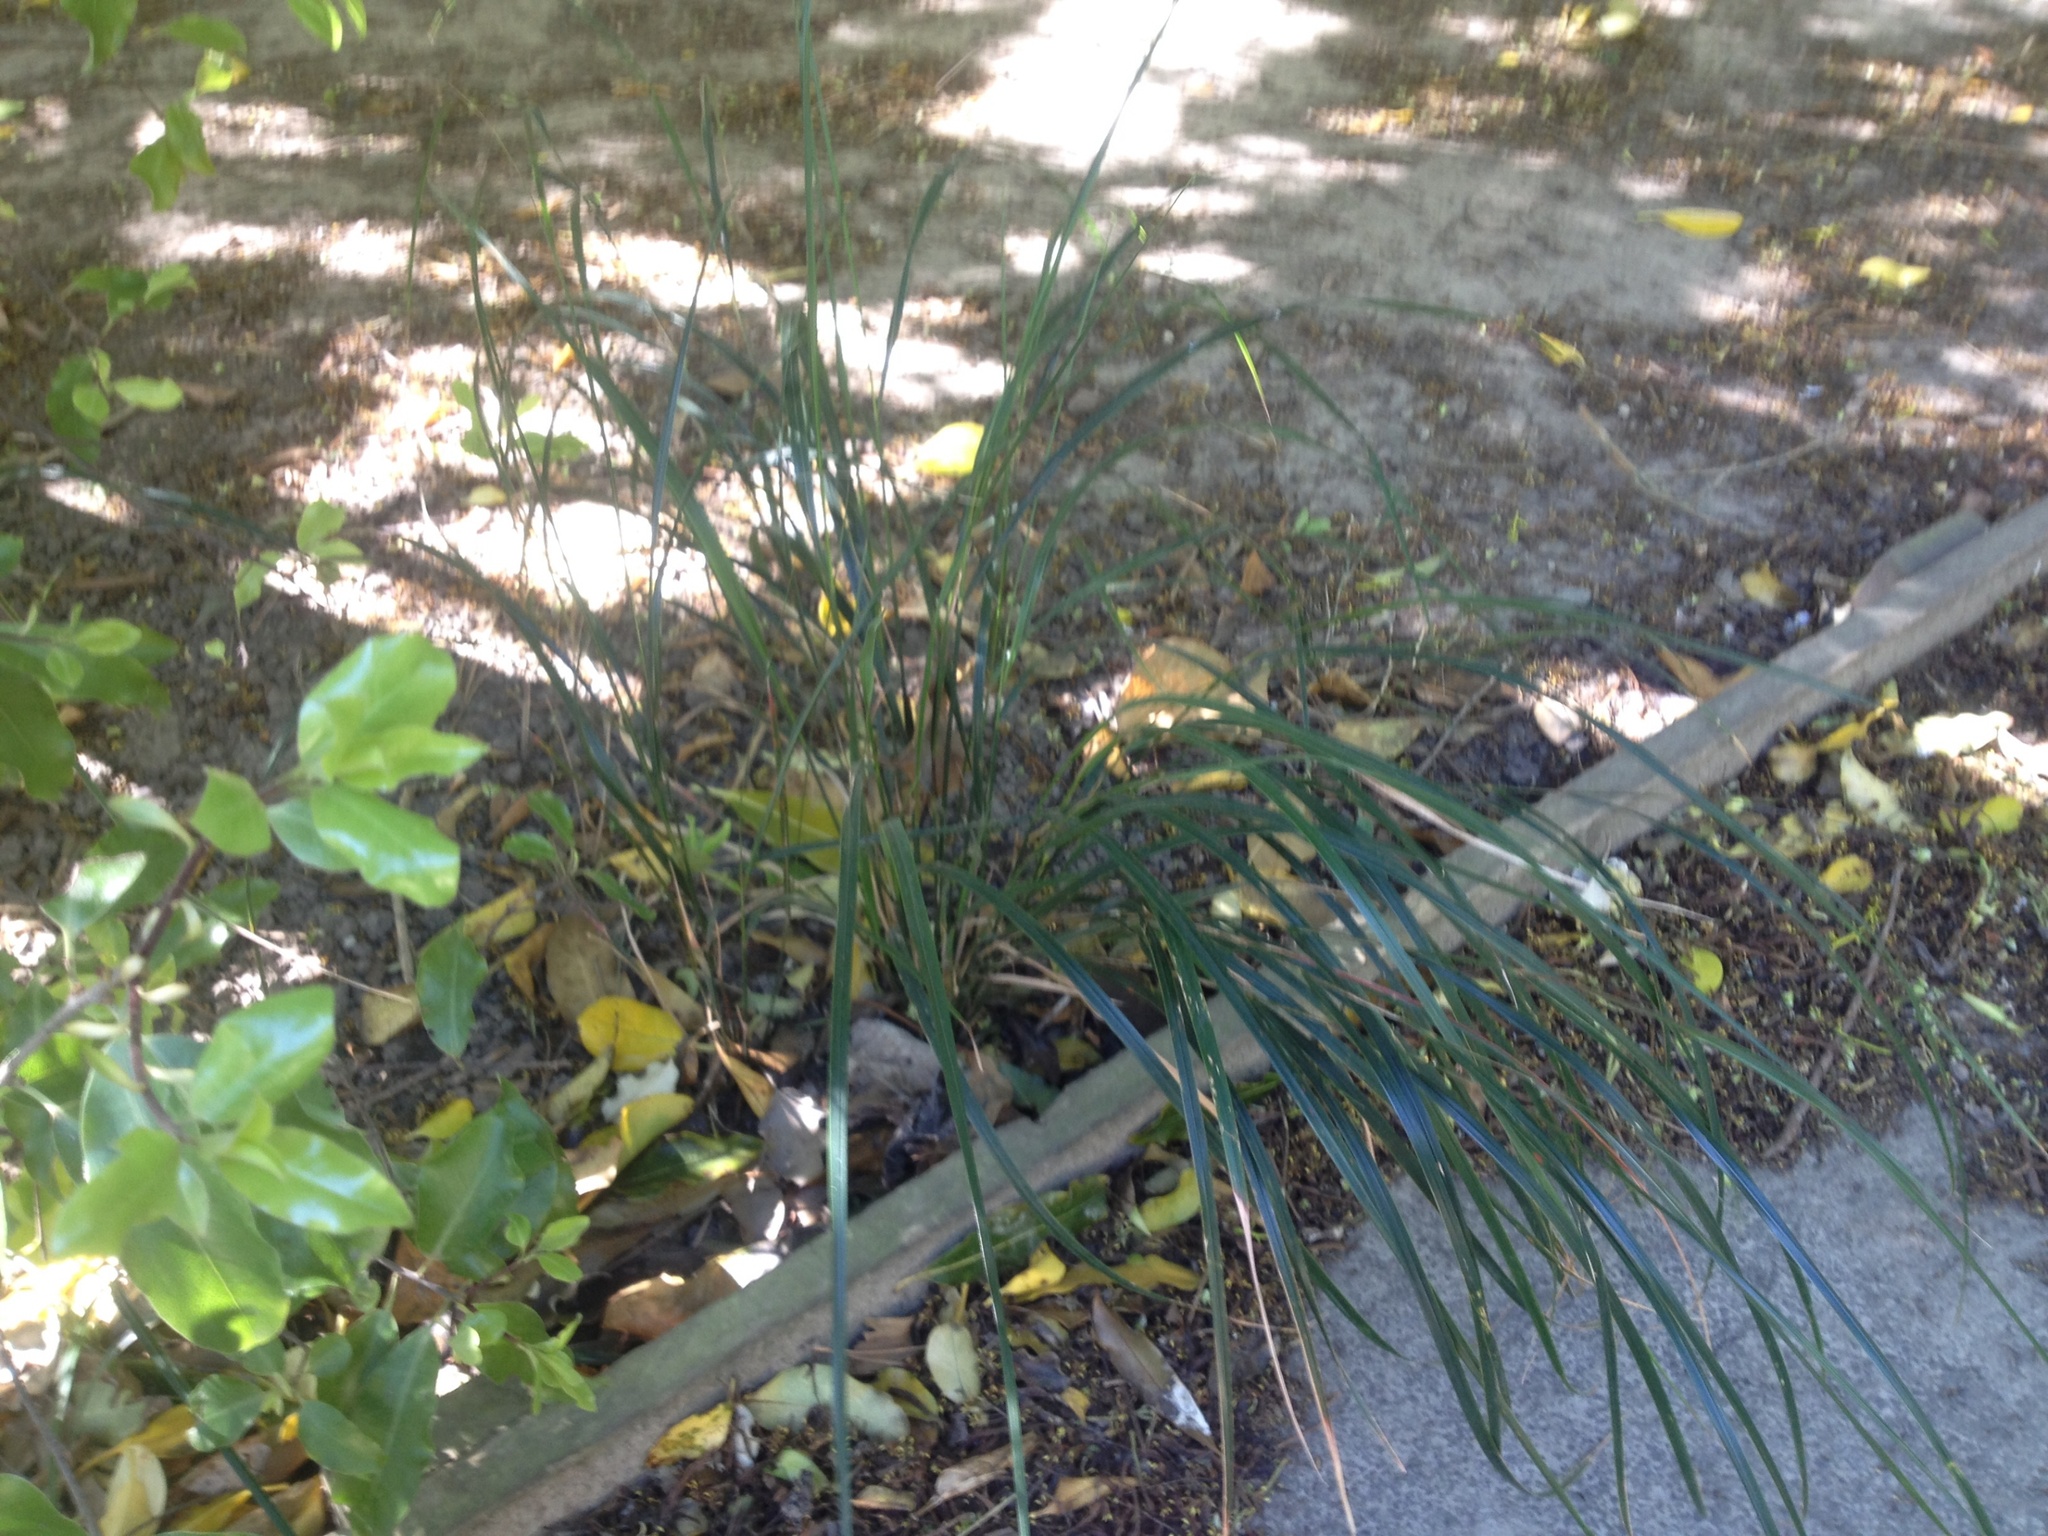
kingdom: Plantae
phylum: Tracheophyta
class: Liliopsida
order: Poales
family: Poaceae
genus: Anemanthele
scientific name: Anemanthele lessoniana
